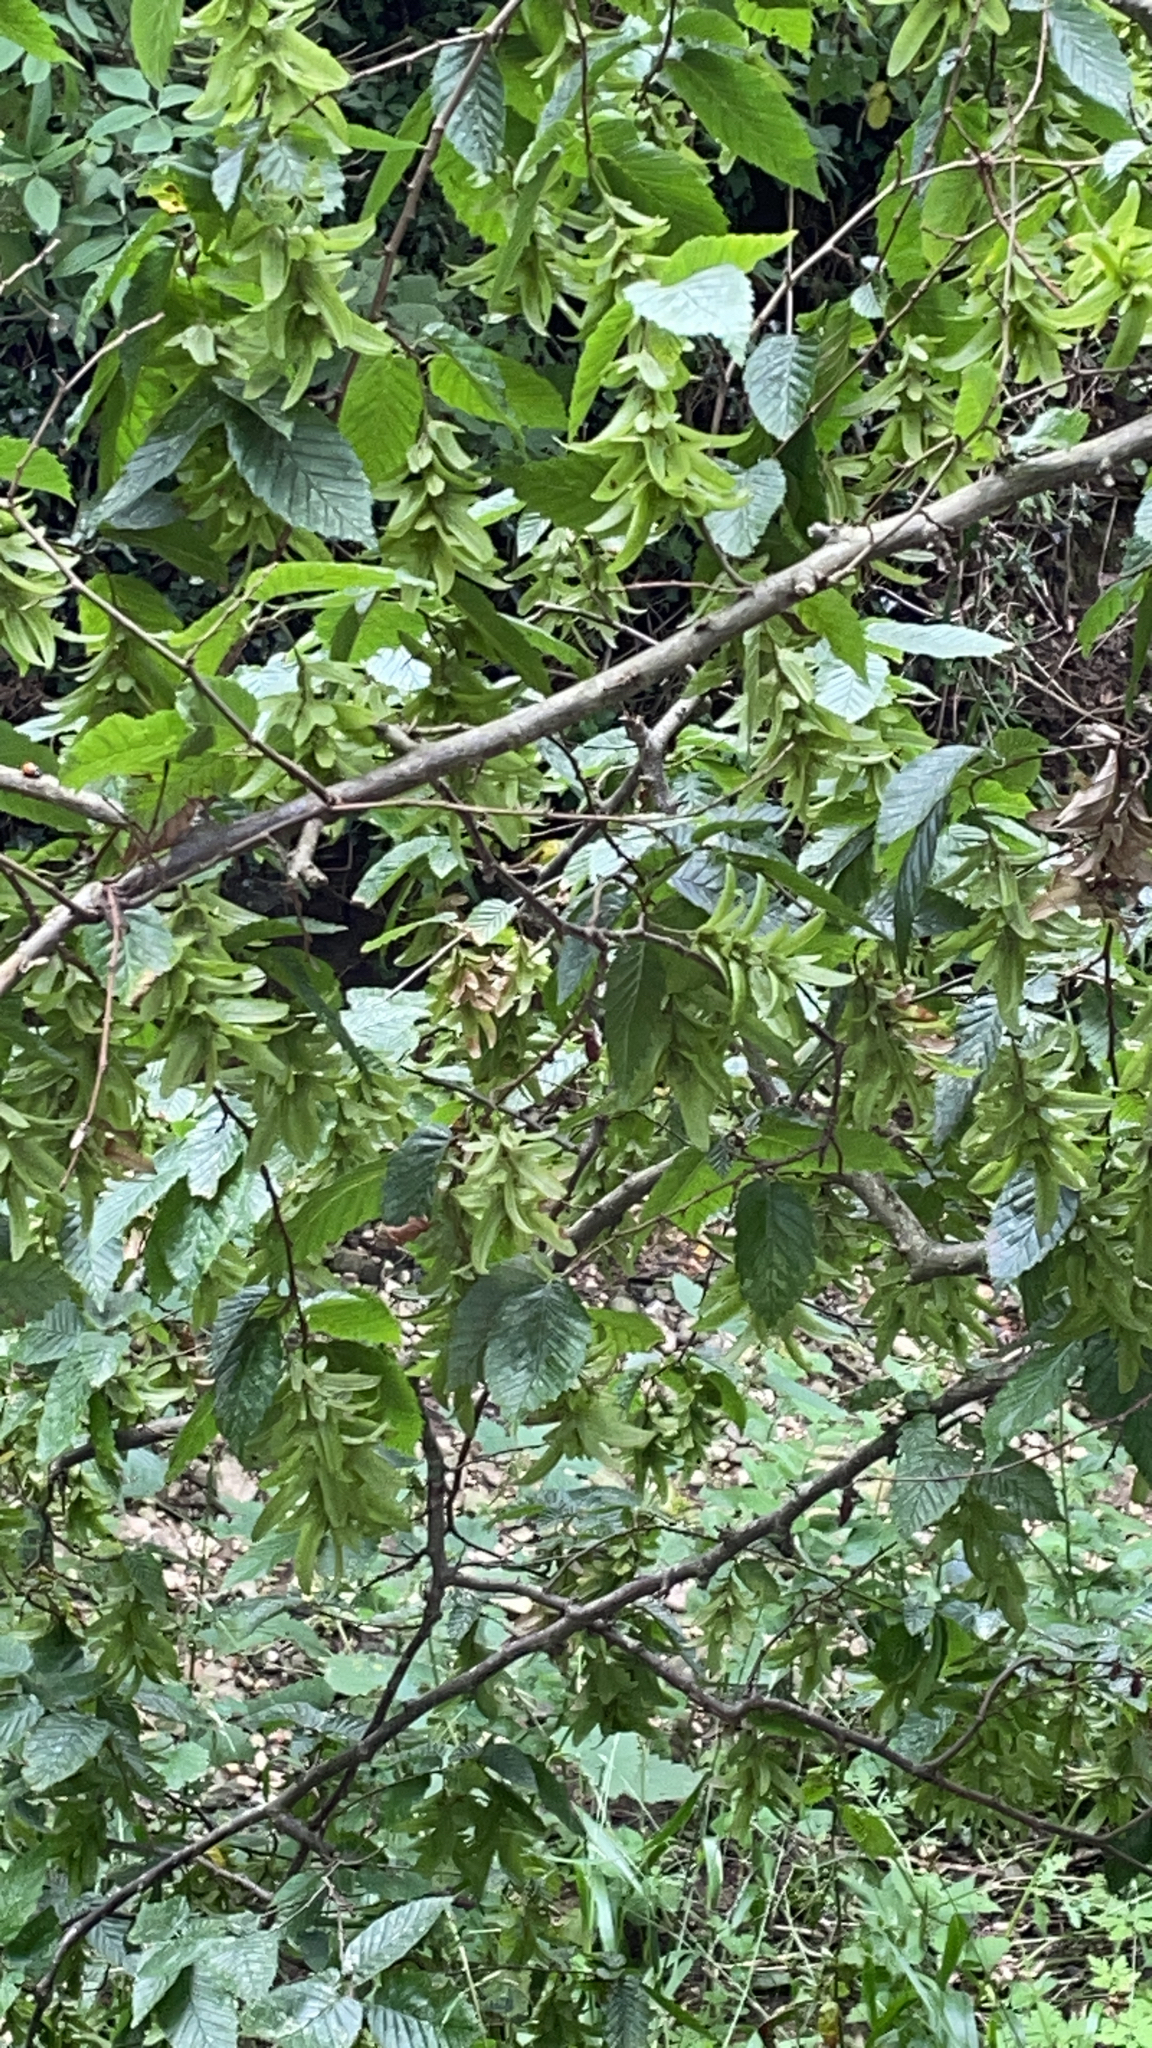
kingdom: Plantae
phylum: Tracheophyta
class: Magnoliopsida
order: Fagales
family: Betulaceae
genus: Carpinus
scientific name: Carpinus betulus
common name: Hornbeam
